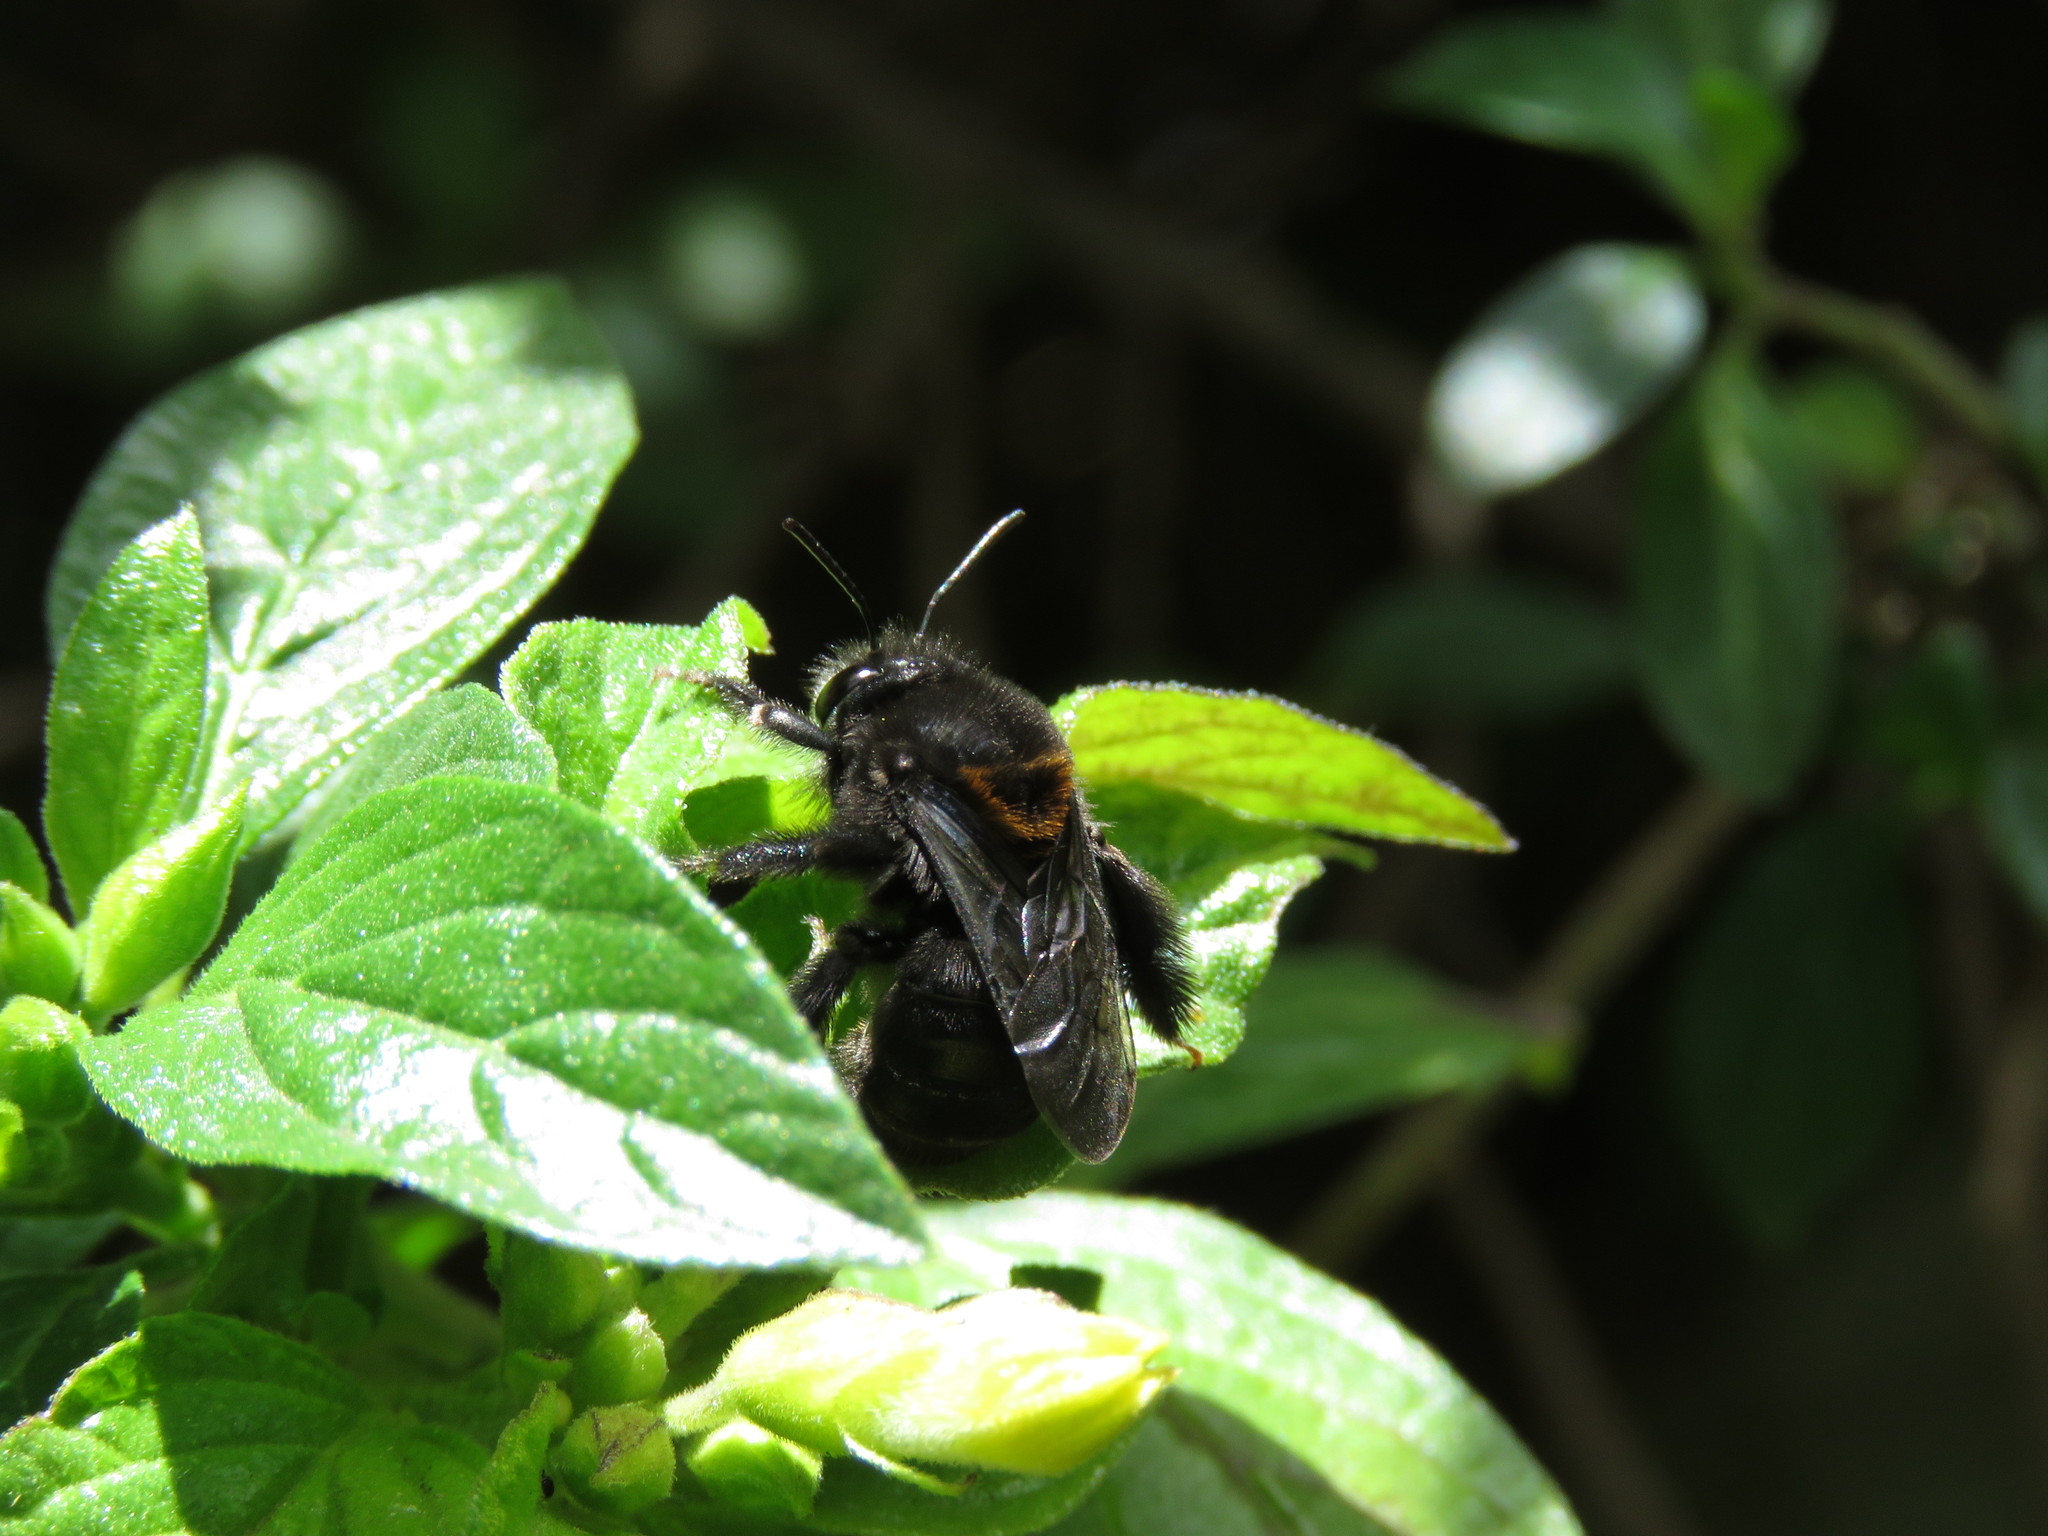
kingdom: Animalia
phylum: Arthropoda
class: Insecta
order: Hymenoptera
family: Apidae
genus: Thygater
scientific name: Thygater aethiops
